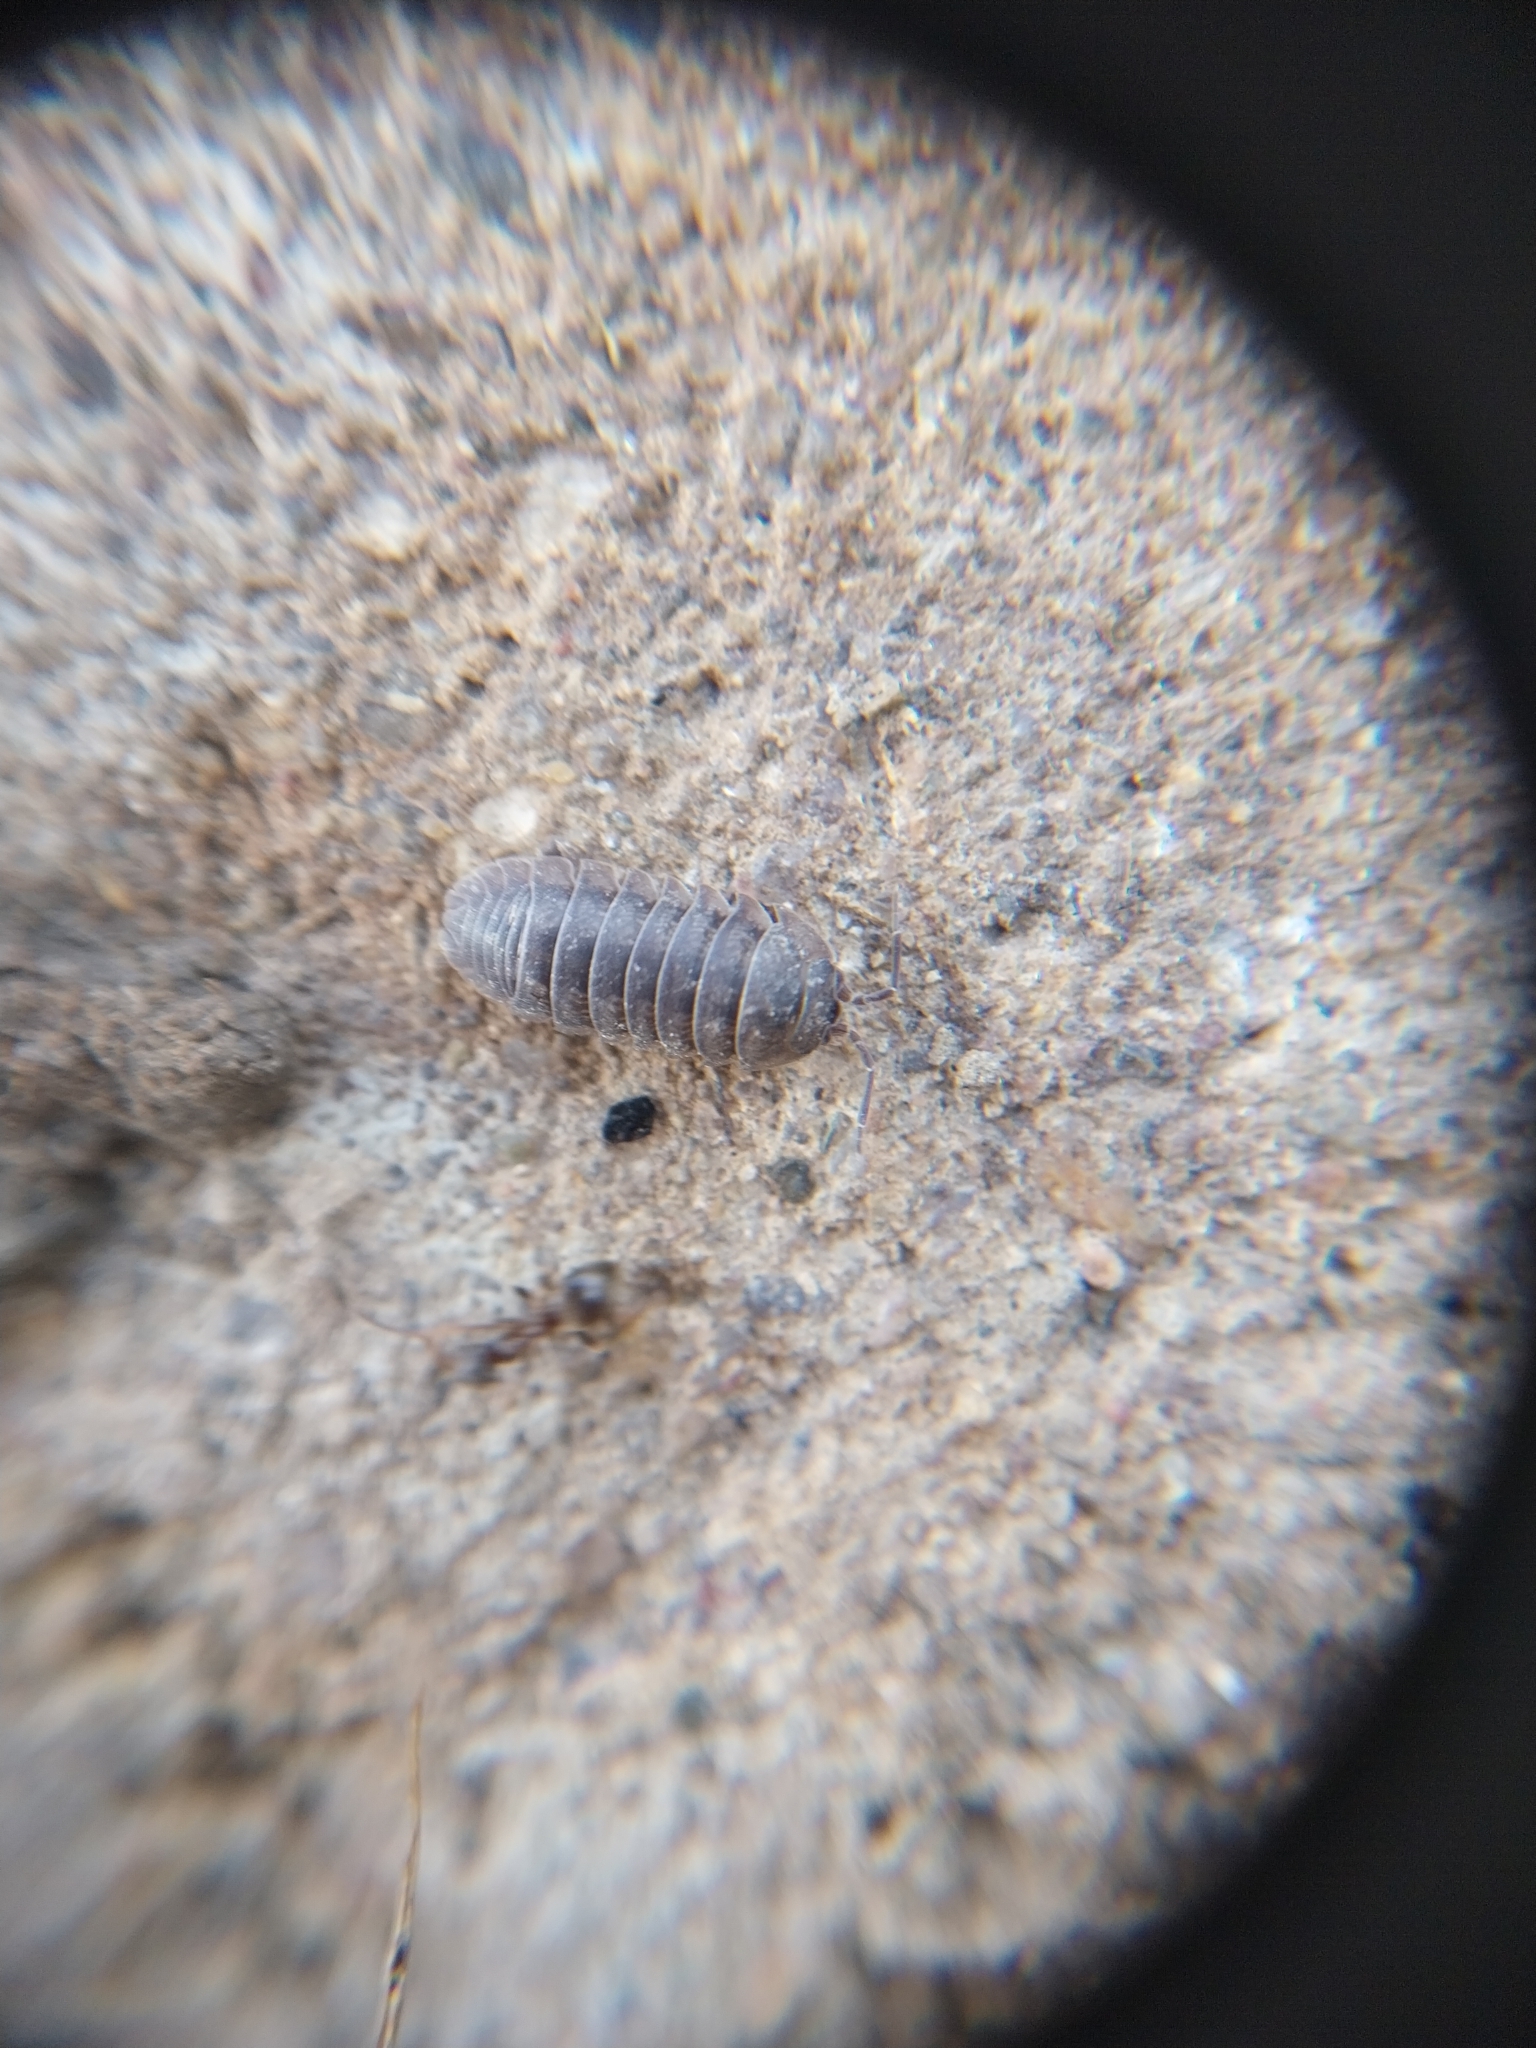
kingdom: Animalia
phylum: Arthropoda
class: Malacostraca
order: Isopoda
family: Armadillidiidae
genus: Armadillidium
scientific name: Armadillidium nasatum
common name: Isopod
